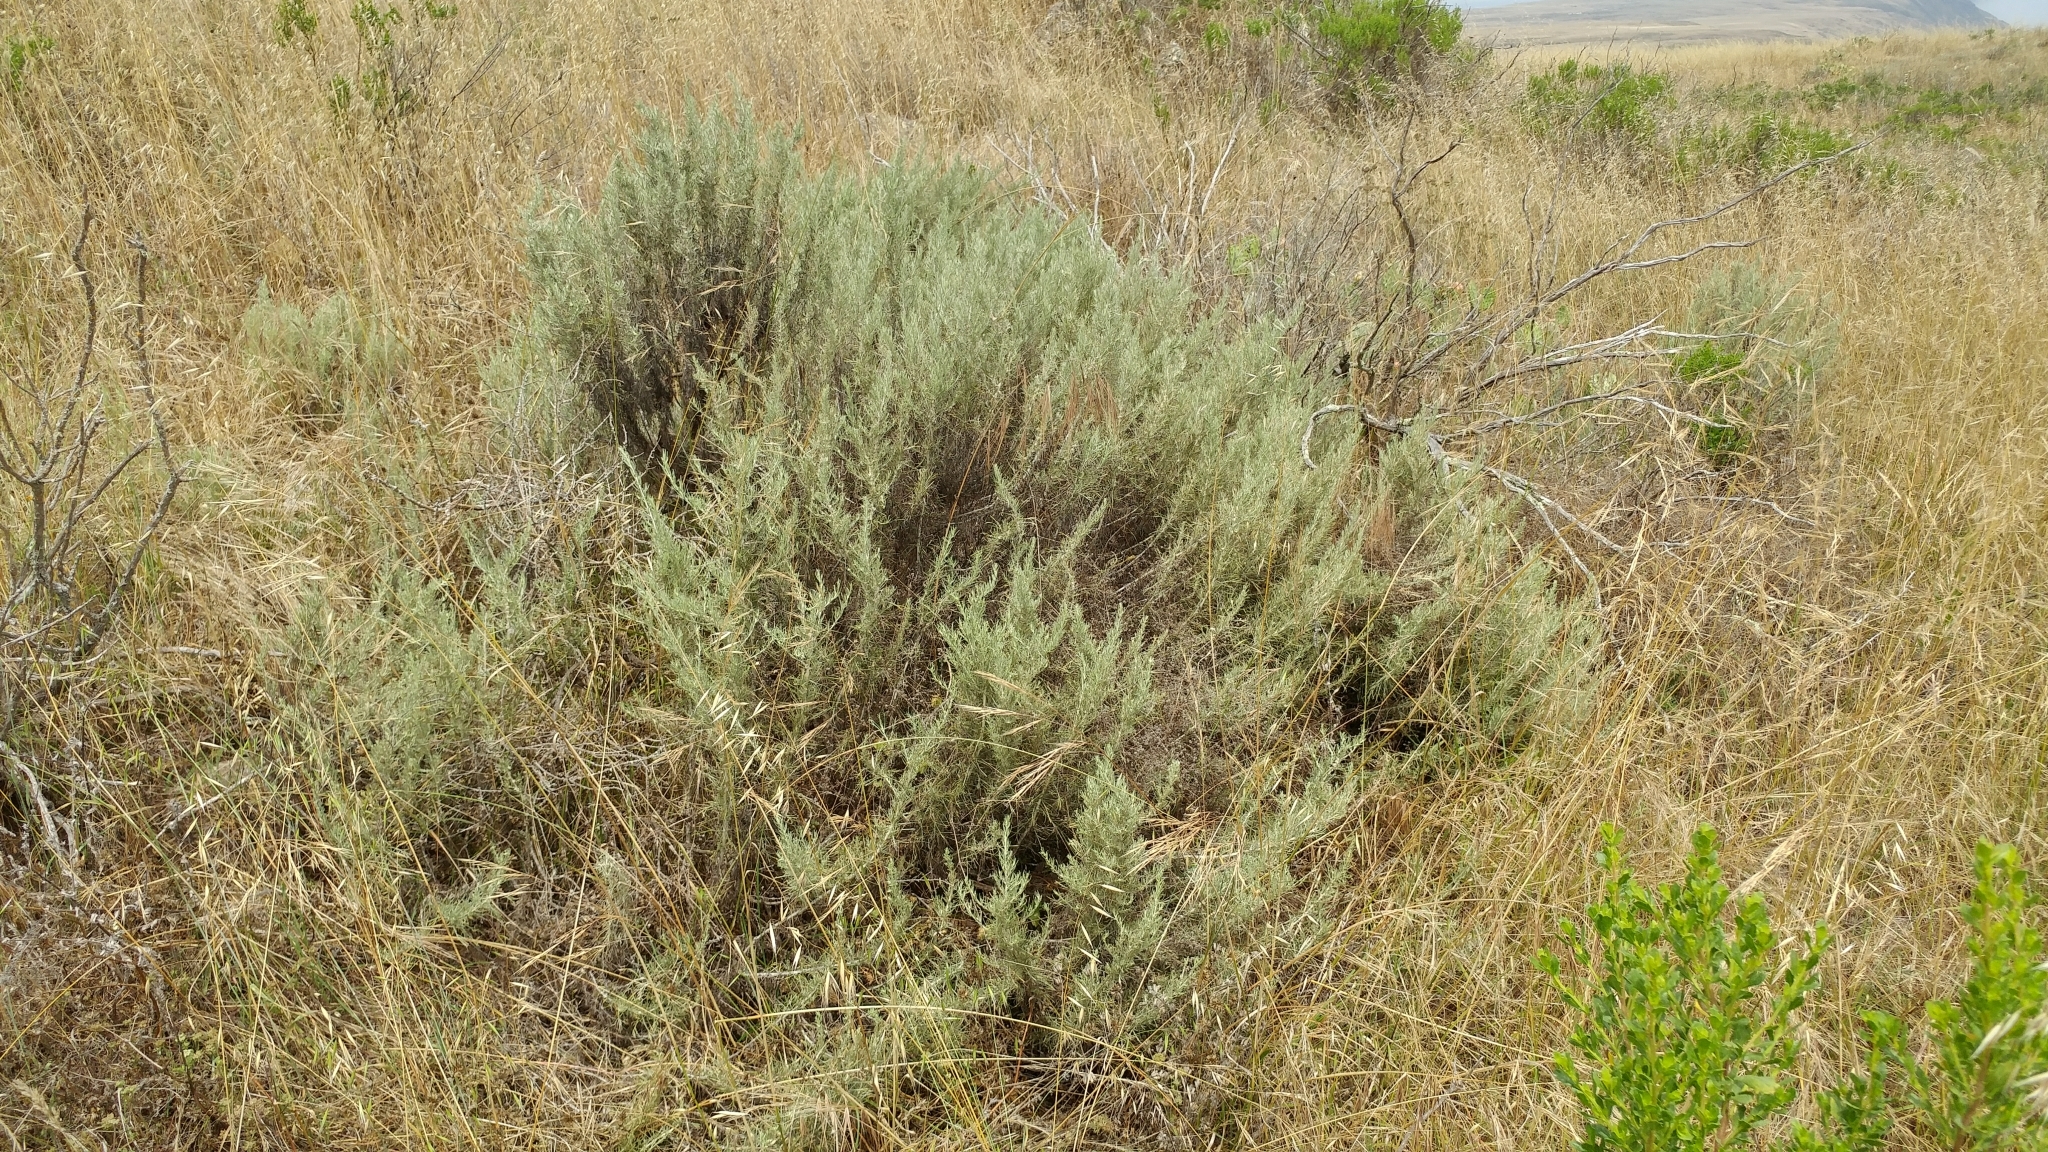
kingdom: Plantae
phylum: Tracheophyta
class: Magnoliopsida
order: Asterales
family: Asteraceae
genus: Artemisia
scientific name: Artemisia californica
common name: California sagebrush
